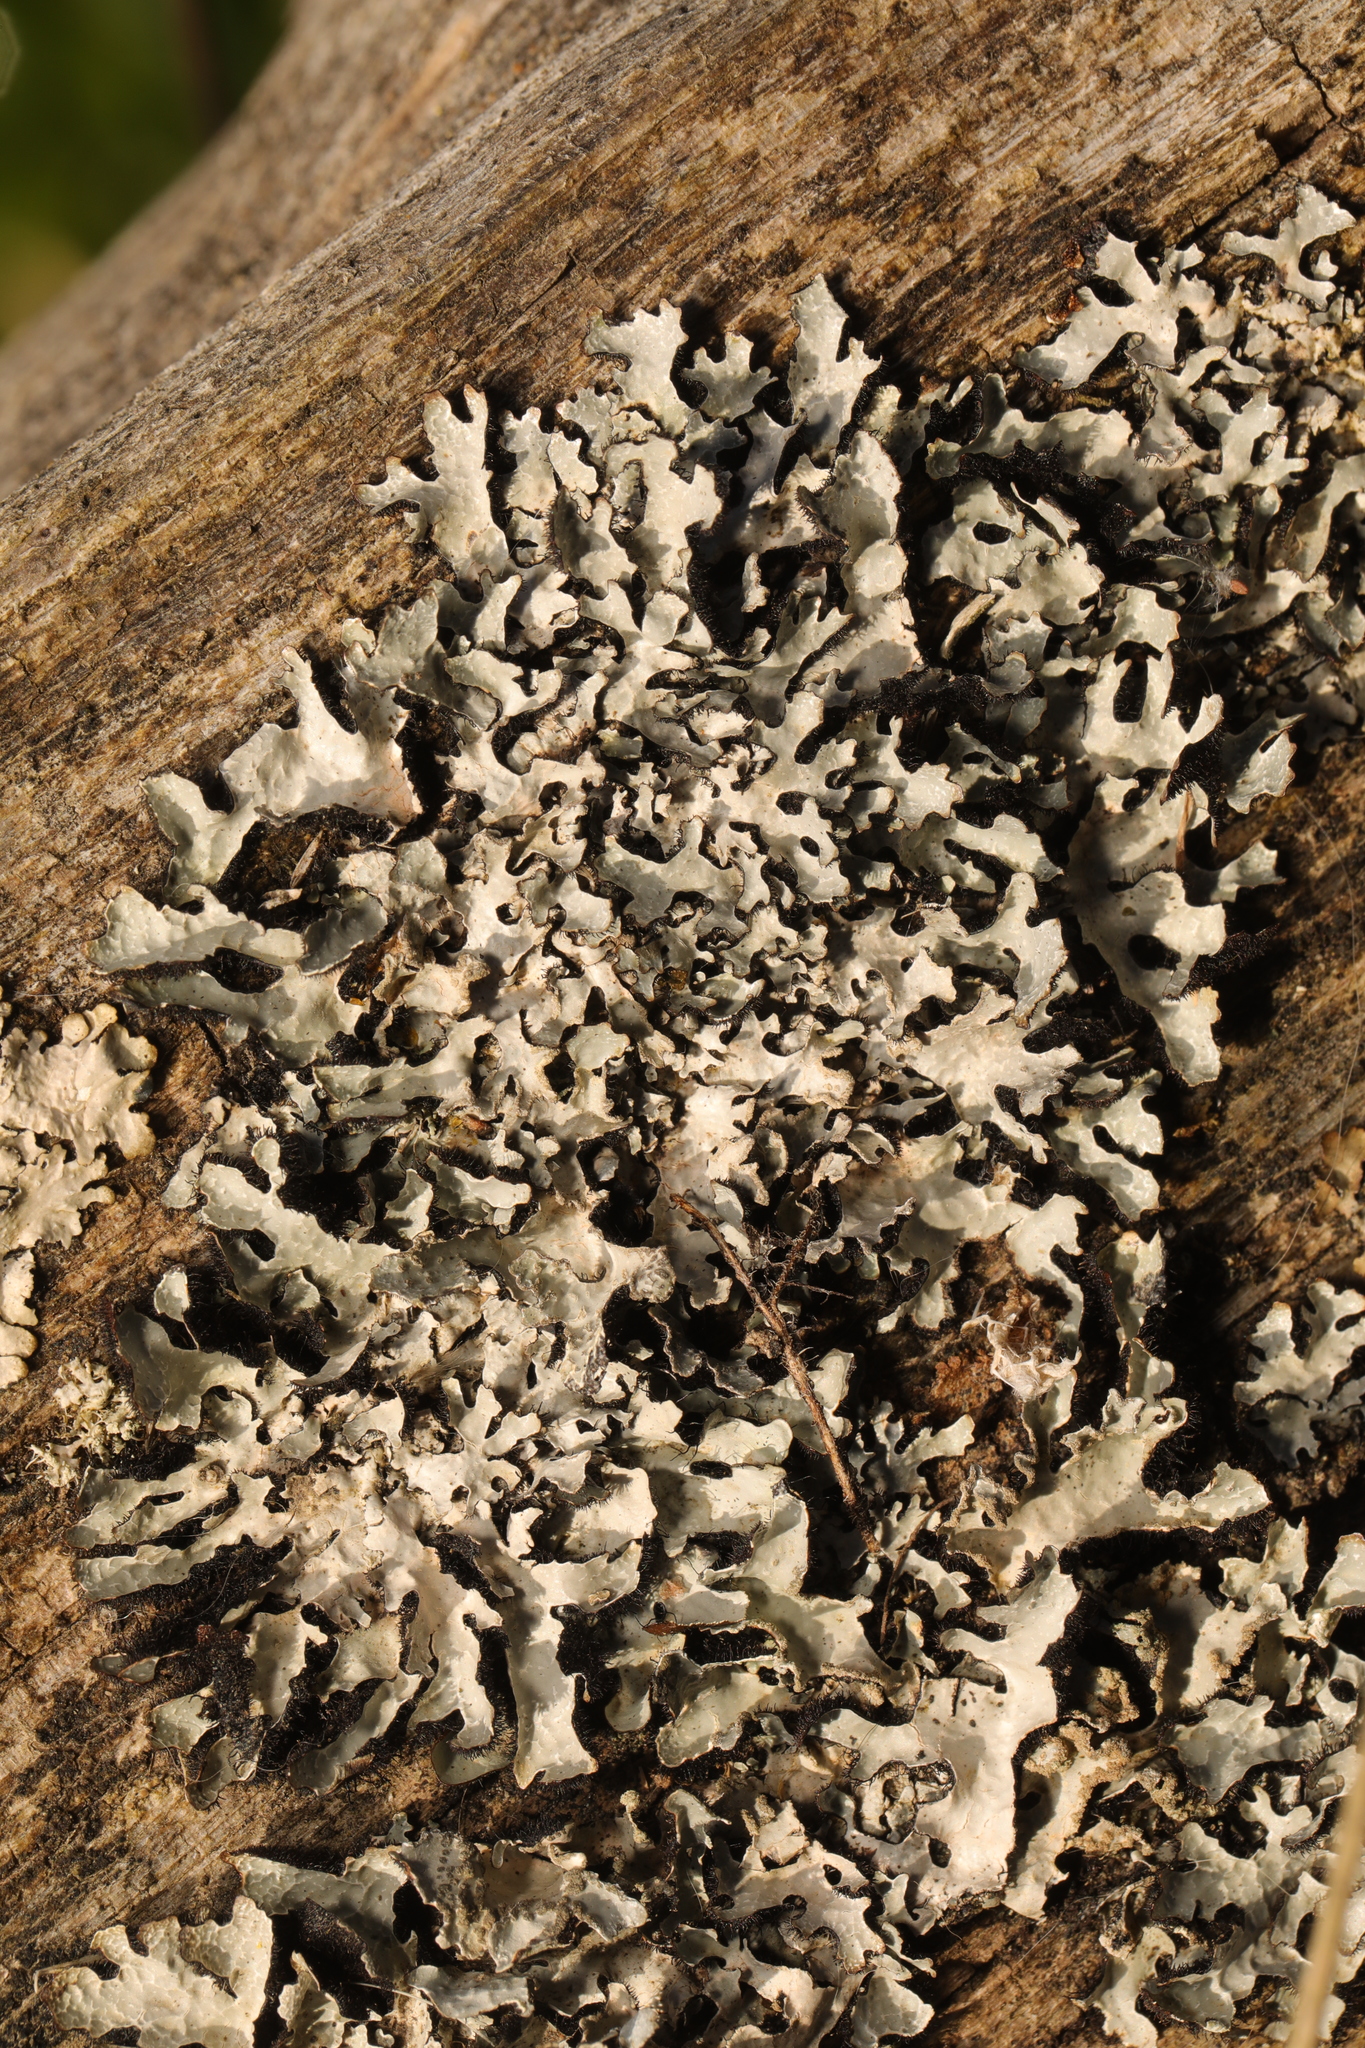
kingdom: Fungi
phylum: Ascomycota
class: Lecanoromycetes
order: Lecanorales
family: Parmeliaceae
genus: Parmelia
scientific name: Parmelia sulcata
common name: Netted shield lichen
